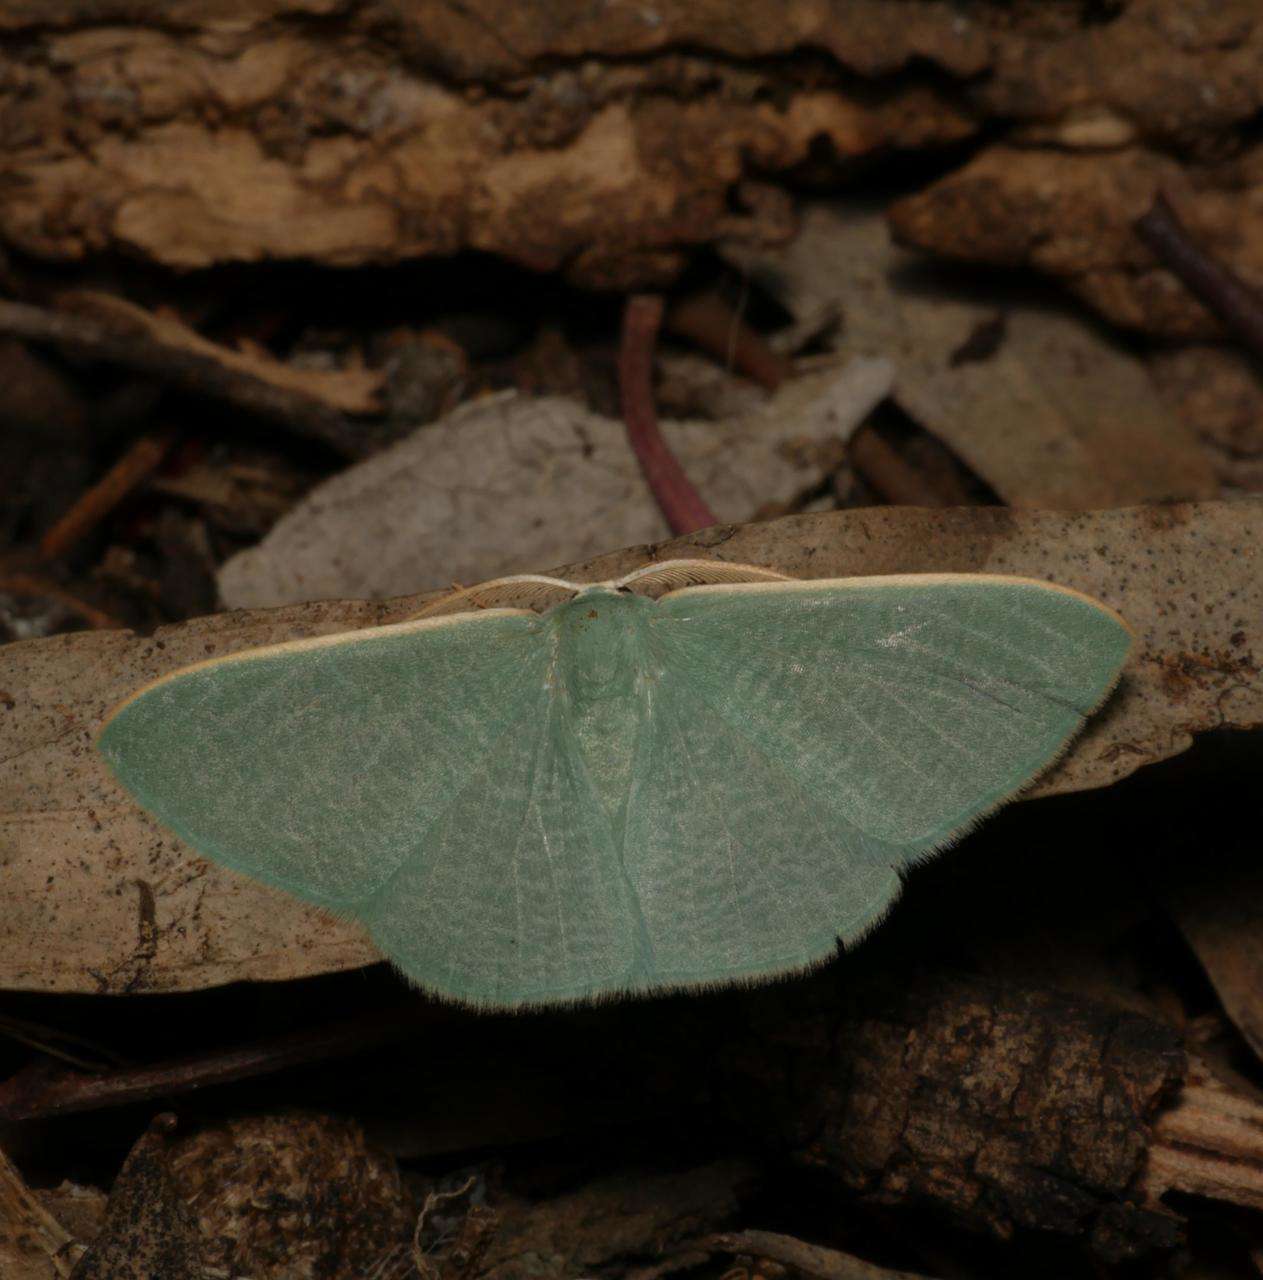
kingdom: Animalia
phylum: Arthropoda
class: Insecta
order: Lepidoptera
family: Geometridae
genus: Prasinocyma
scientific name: Prasinocyma ocyptera
